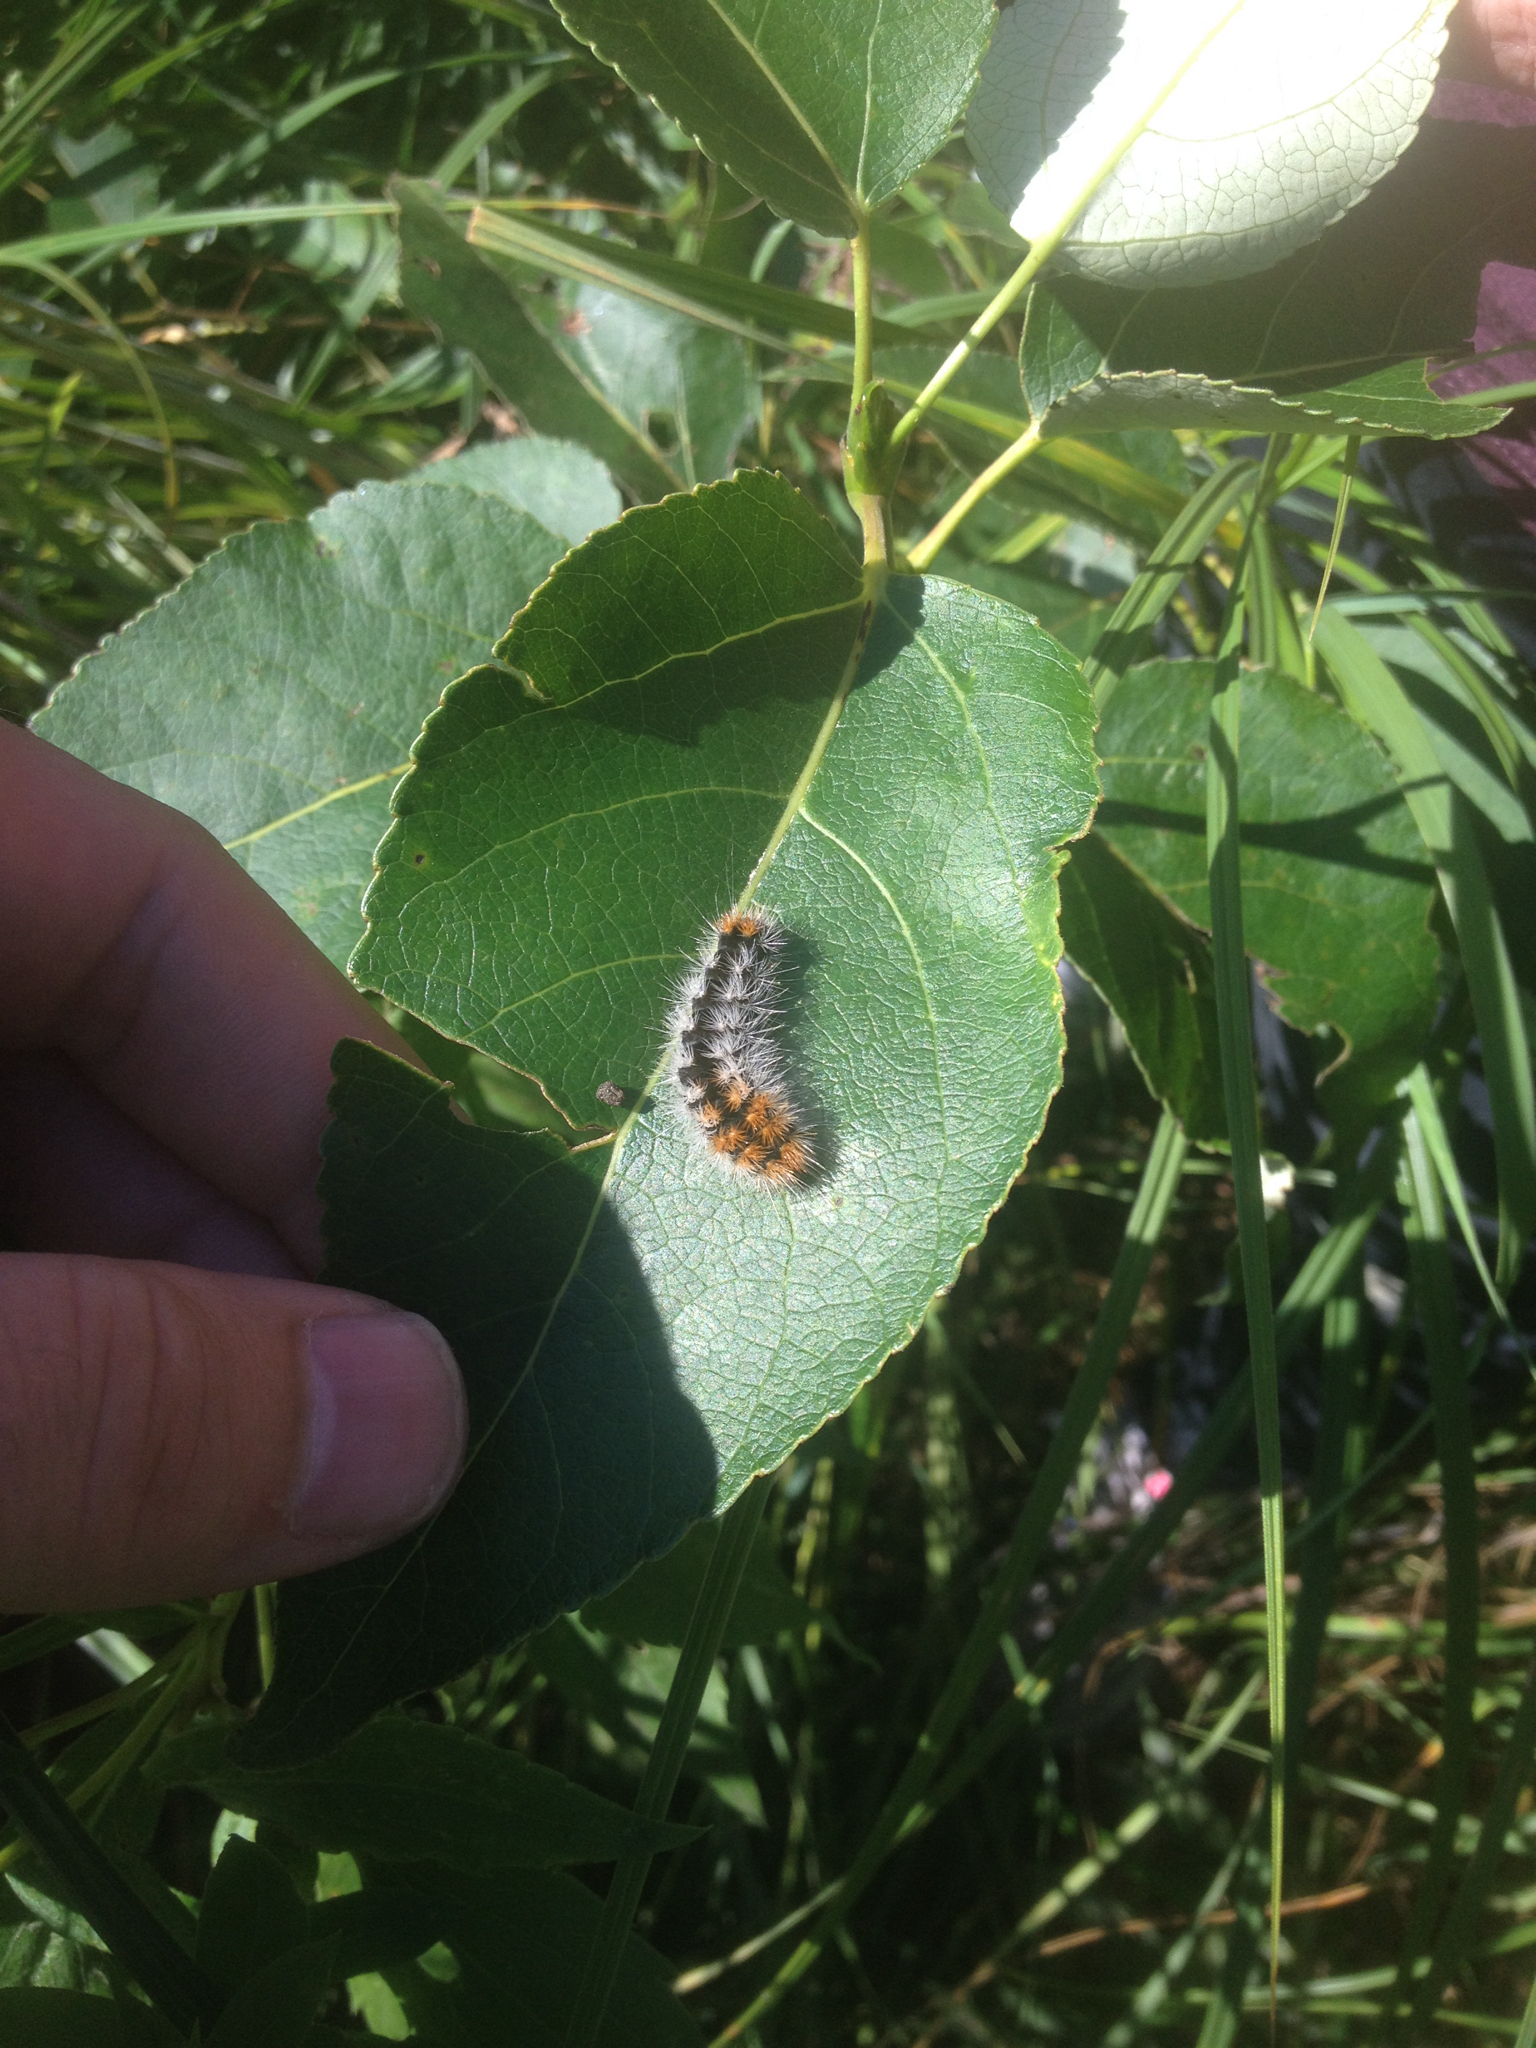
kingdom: Animalia
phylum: Arthropoda
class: Insecta
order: Lepidoptera
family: Noctuidae
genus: Acronicta
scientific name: Acronicta impressa
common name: Impressed dagger
